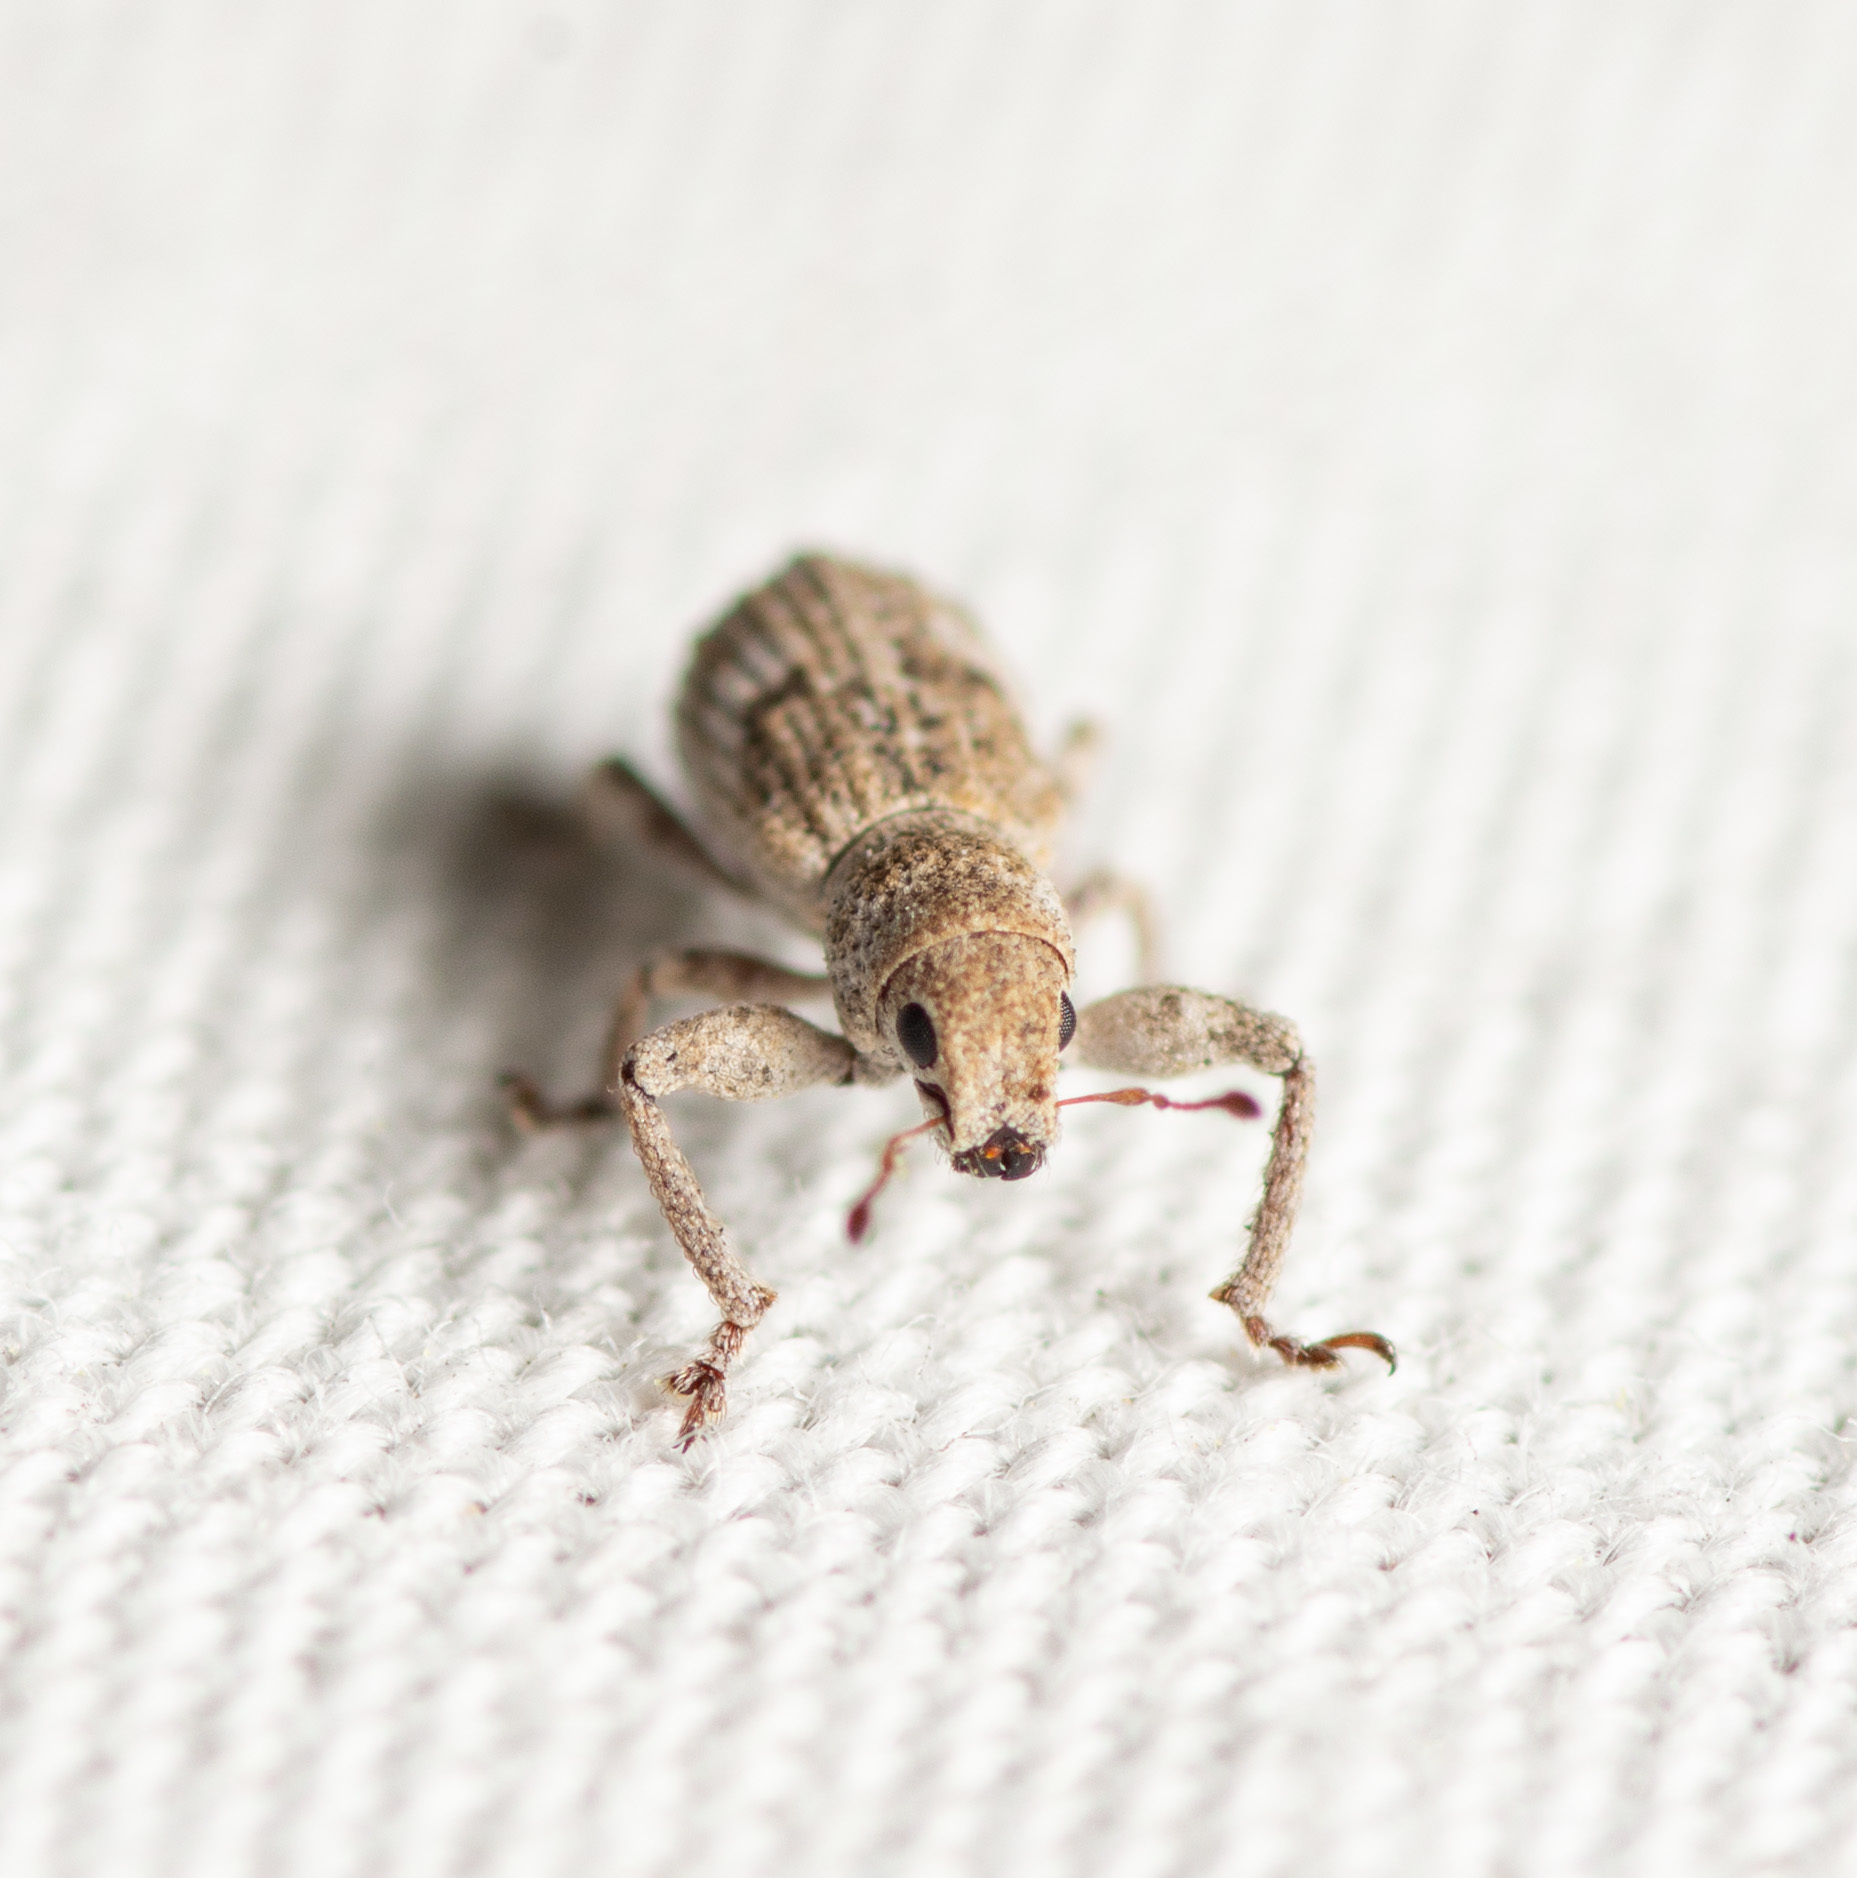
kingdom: Animalia
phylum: Arthropoda
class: Insecta
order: Coleoptera
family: Curculionidae
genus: Pandeleteius
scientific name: Pandeleteius cinereus
